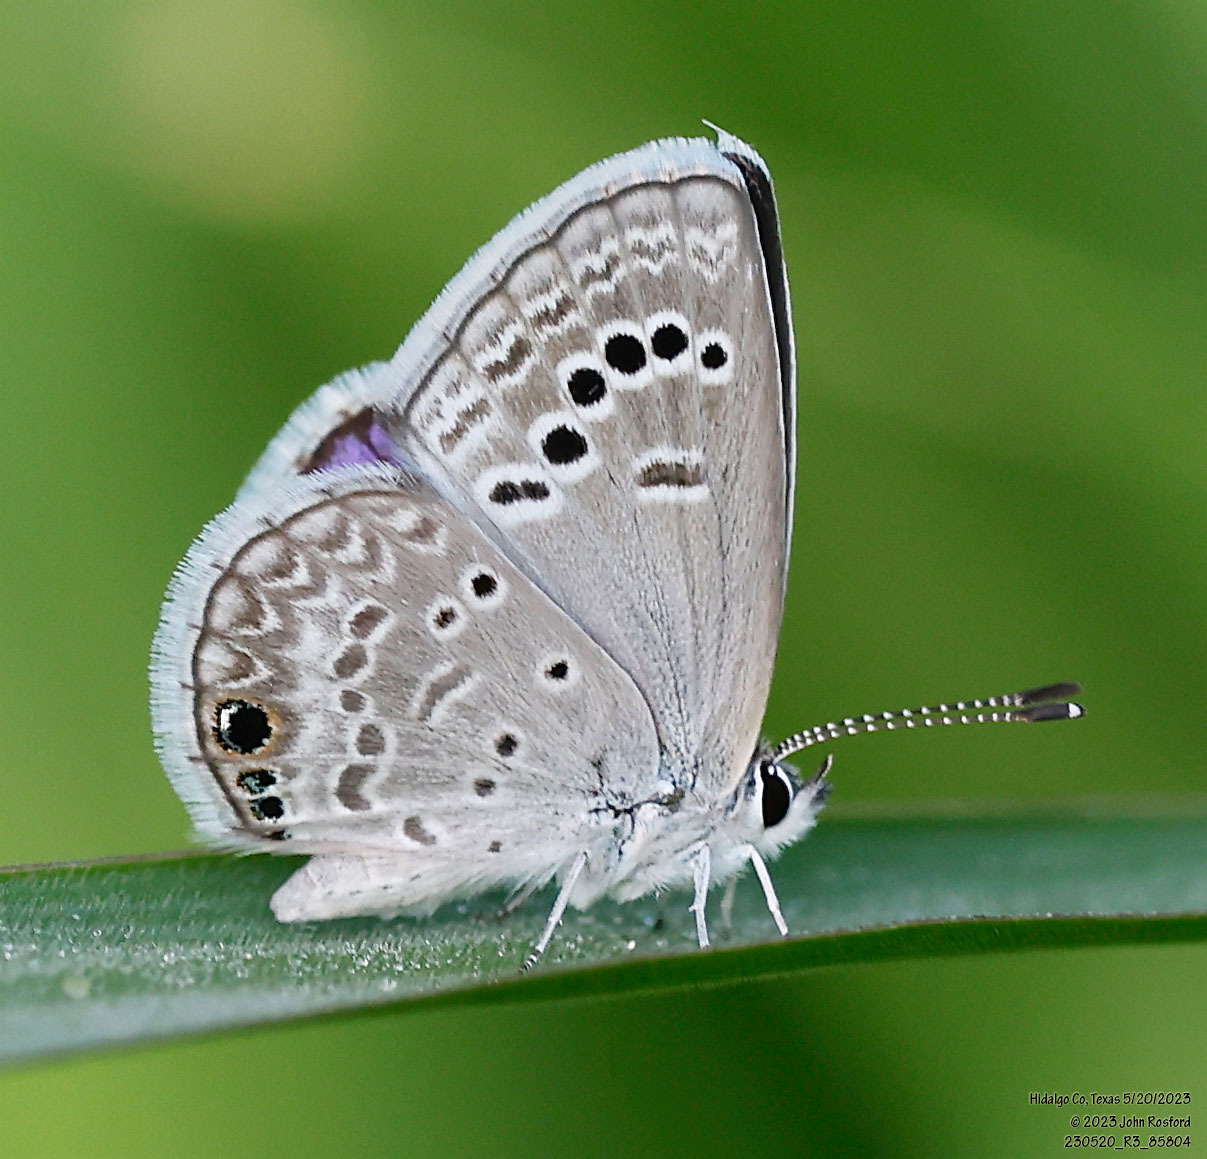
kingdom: Animalia
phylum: Arthropoda
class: Insecta
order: Lepidoptera
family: Lycaenidae
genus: Echinargus
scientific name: Echinargus isola
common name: Reakirt's blue
